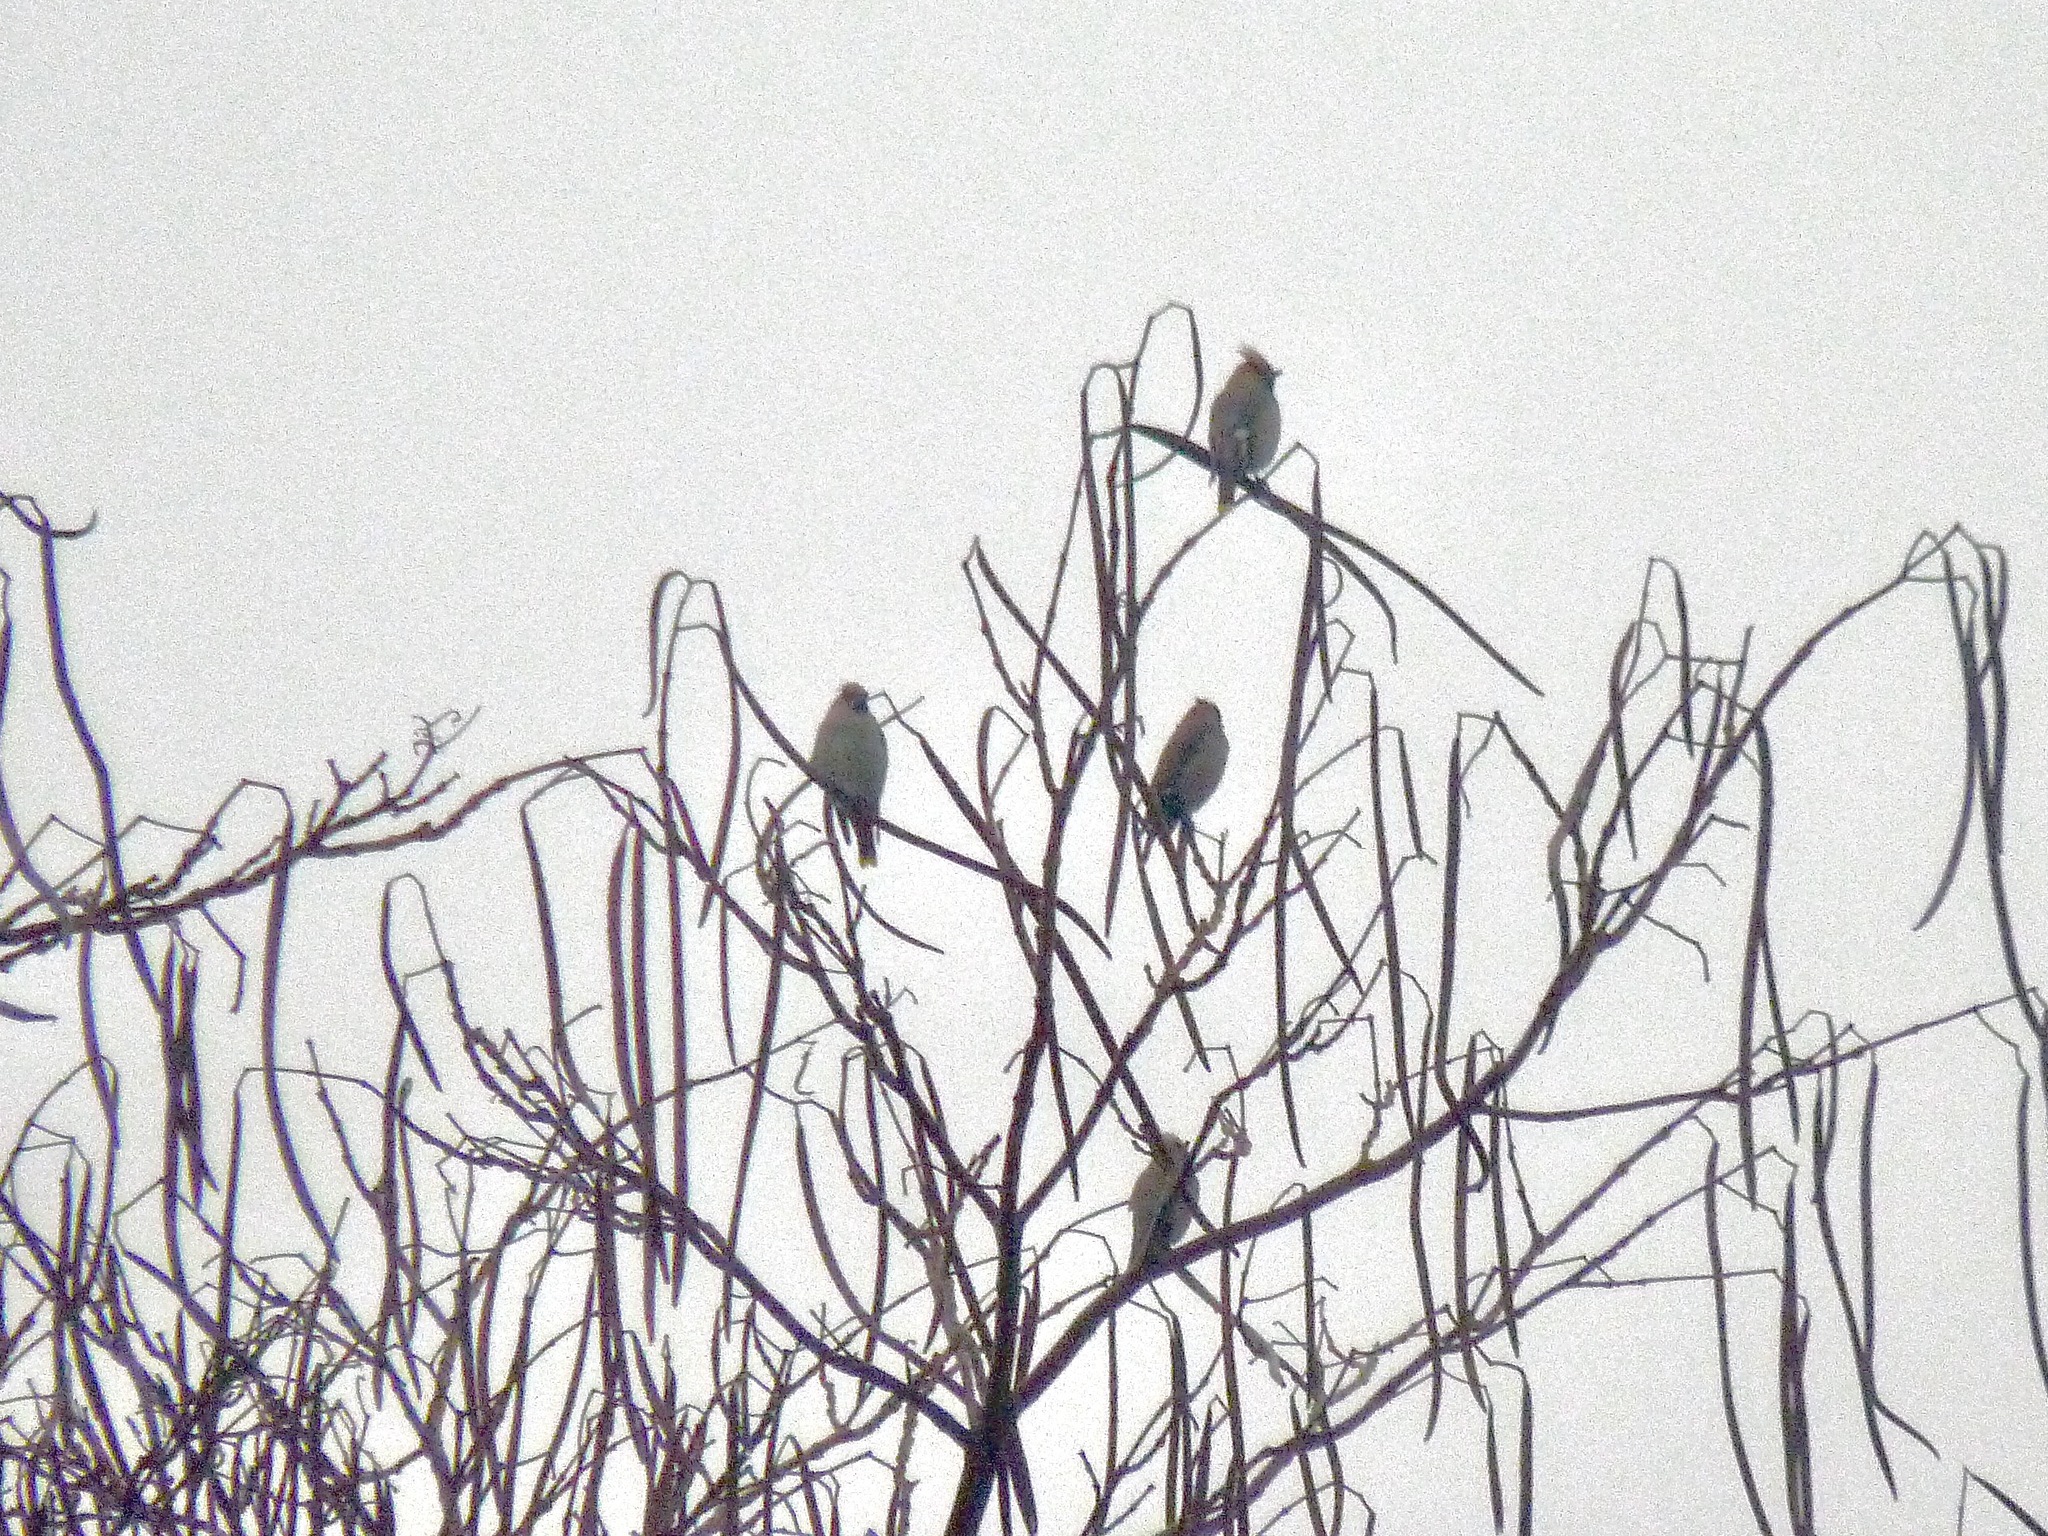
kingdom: Animalia
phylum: Chordata
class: Aves
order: Passeriformes
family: Bombycillidae
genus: Bombycilla
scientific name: Bombycilla garrulus
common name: Bohemian waxwing
